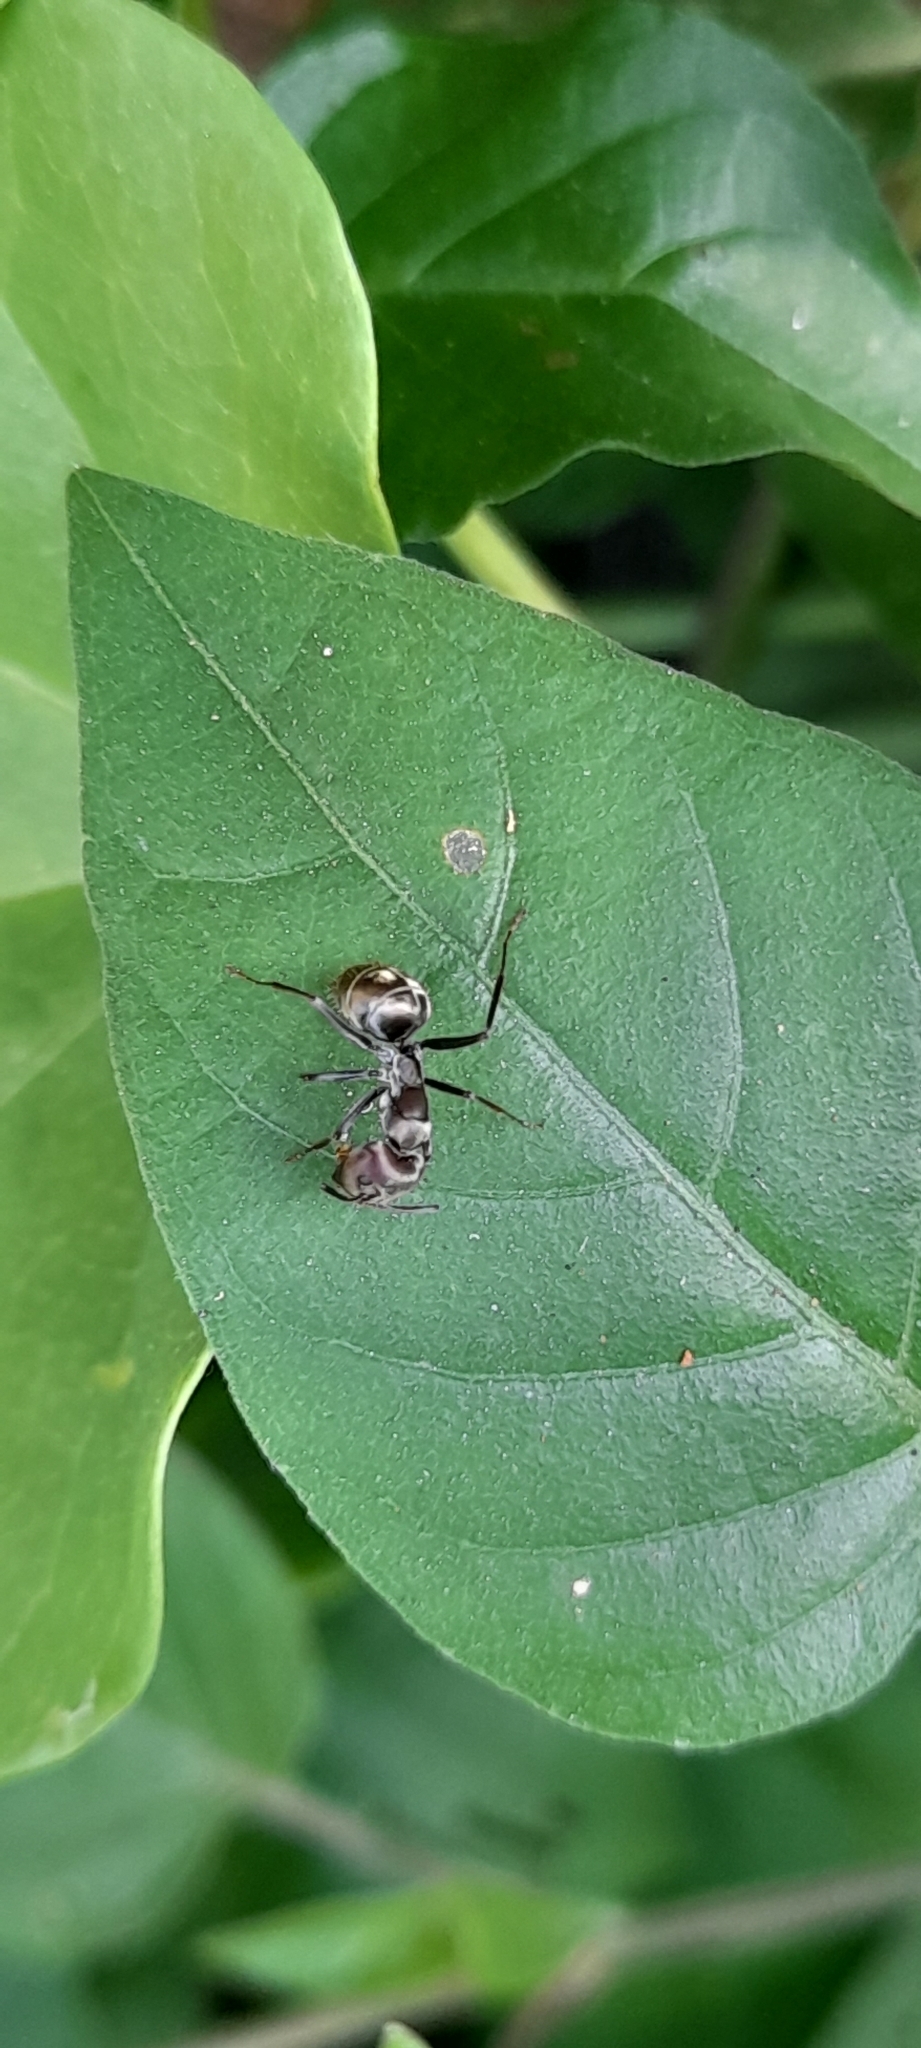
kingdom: Animalia
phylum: Arthropoda
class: Insecta
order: Hymenoptera
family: Formicidae
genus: Camponotus
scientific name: Camponotus rufoglaucus
